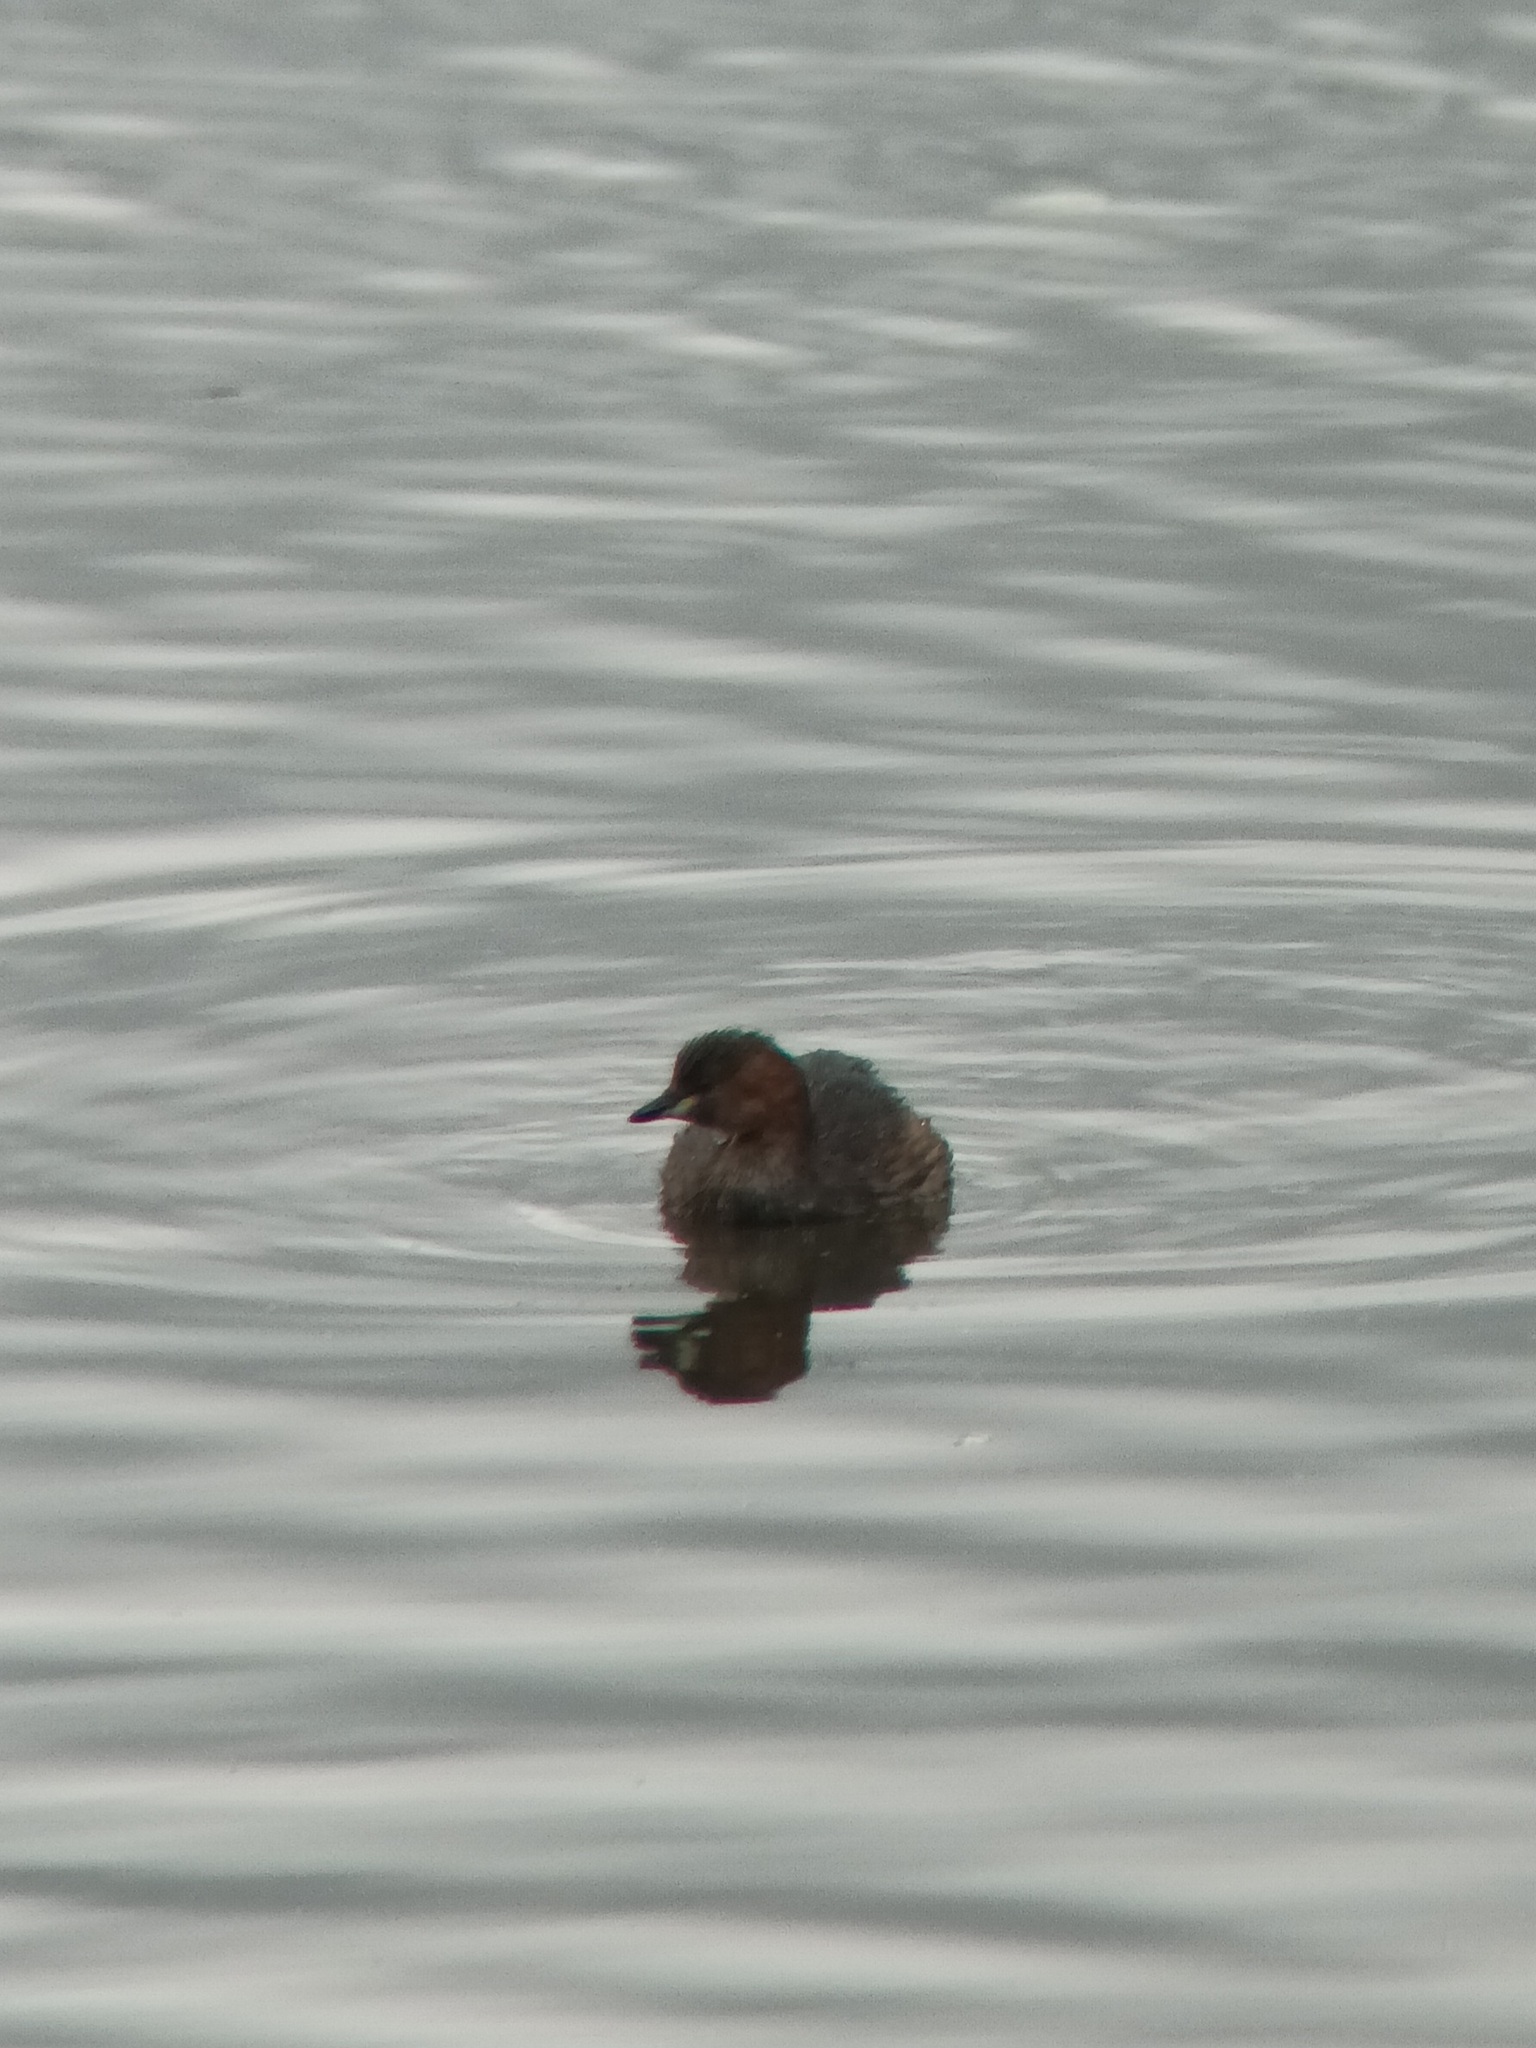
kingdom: Animalia
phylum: Chordata
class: Aves
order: Podicipediformes
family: Podicipedidae
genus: Tachybaptus
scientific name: Tachybaptus ruficollis
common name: Little grebe
